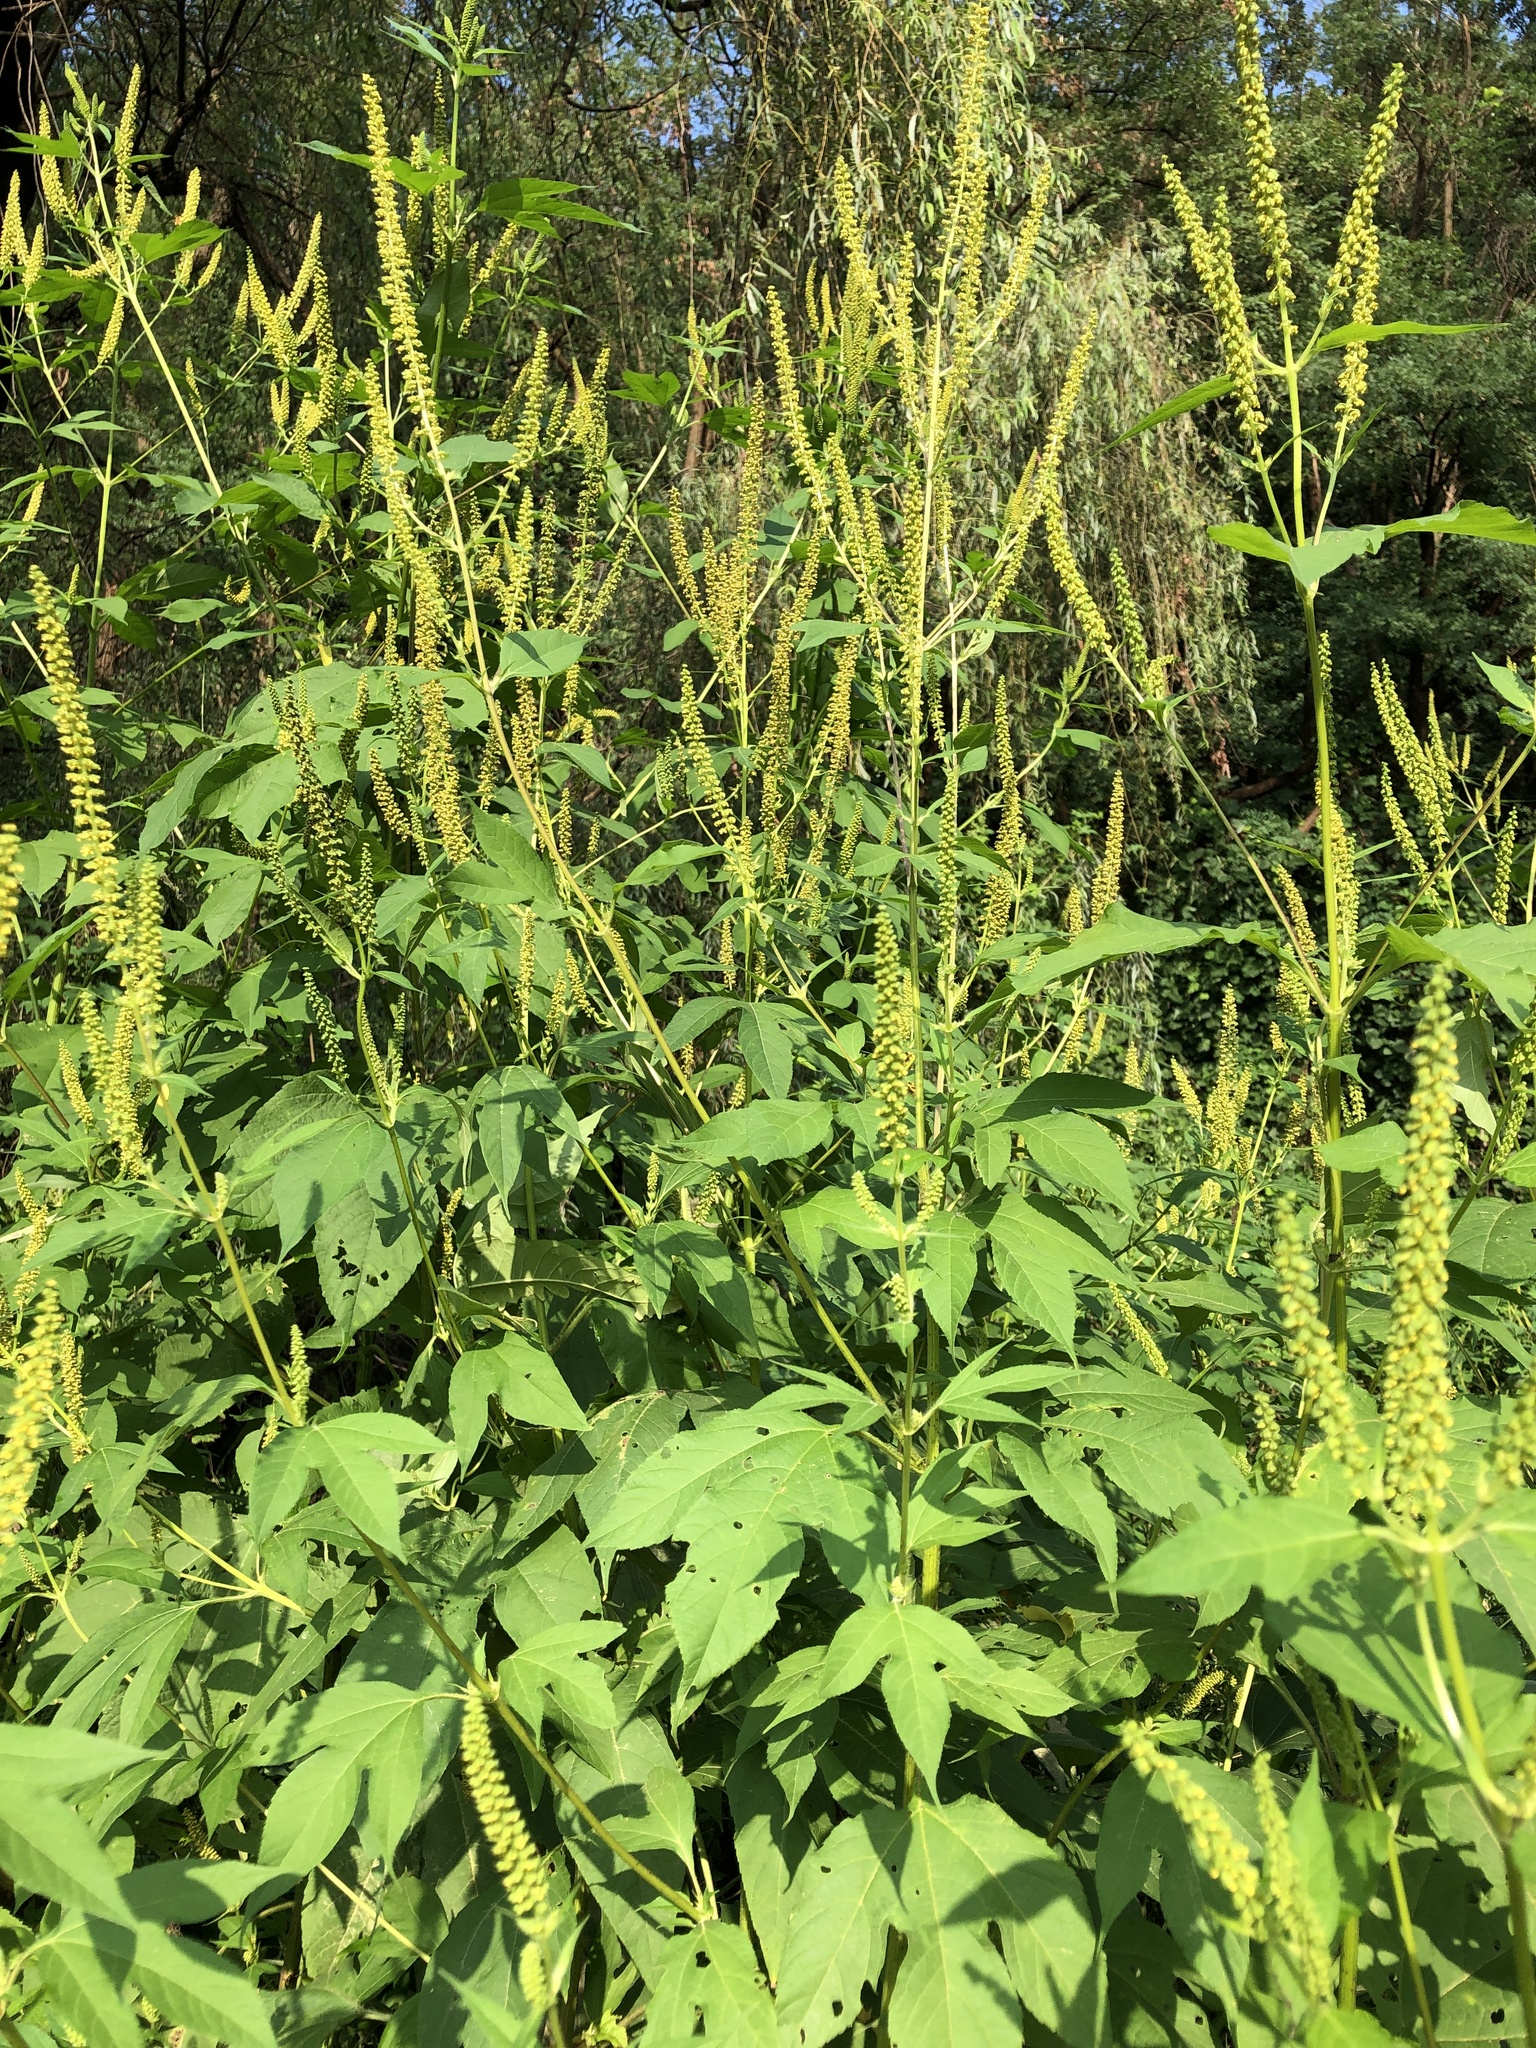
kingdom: Plantae
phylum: Tracheophyta
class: Magnoliopsida
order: Asterales
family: Asteraceae
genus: Ambrosia
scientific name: Ambrosia trifida
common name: Giant ragweed
